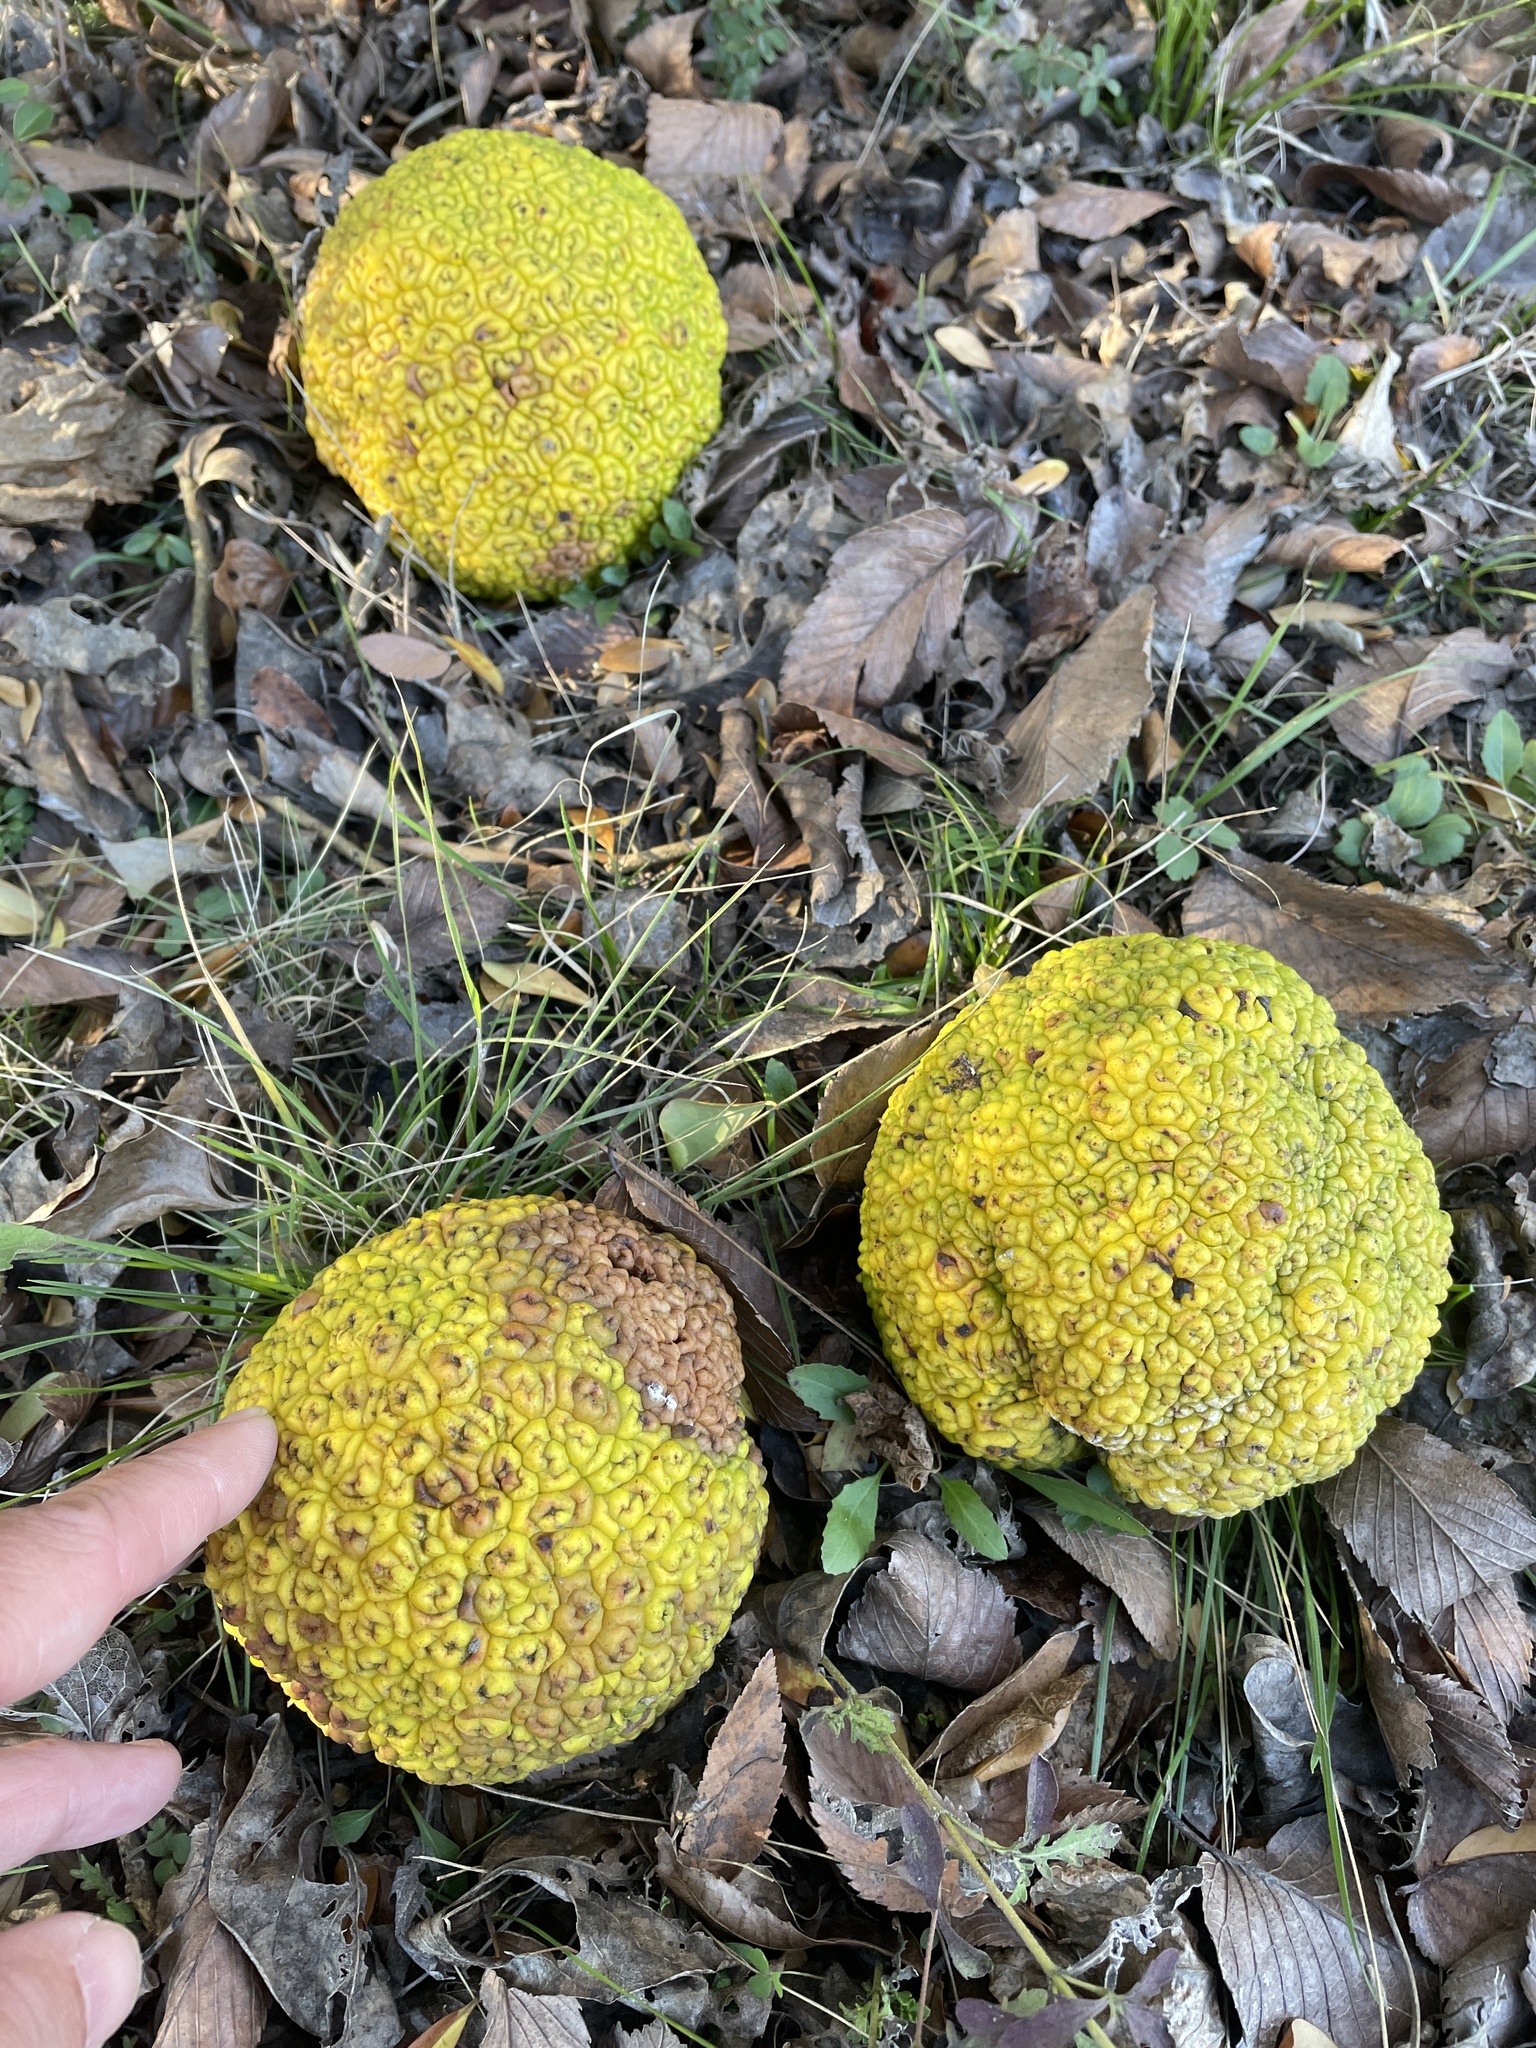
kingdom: Plantae
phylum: Tracheophyta
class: Magnoliopsida
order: Rosales
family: Moraceae
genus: Maclura
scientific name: Maclura pomifera
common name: Osage-orange
